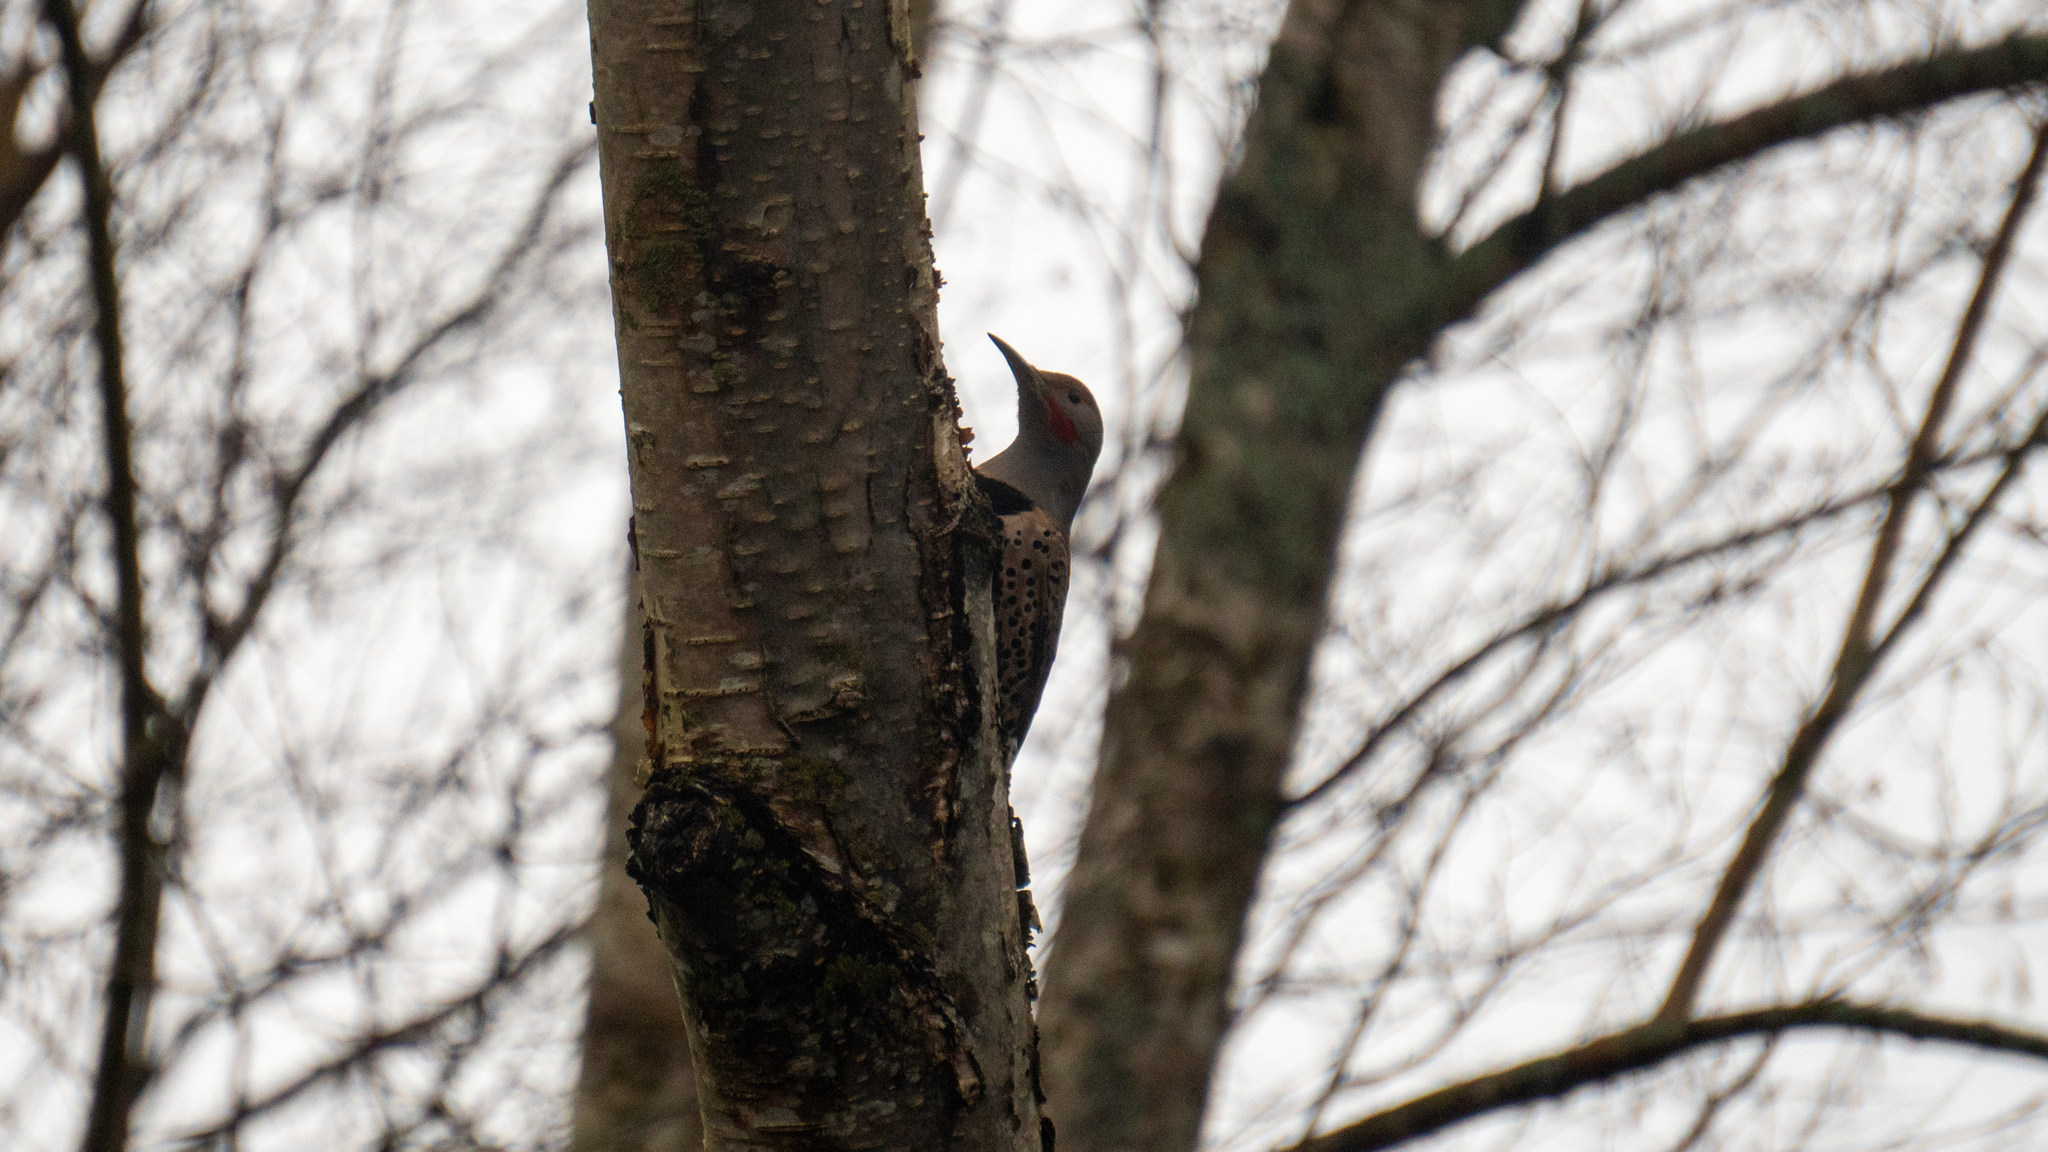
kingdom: Animalia
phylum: Chordata
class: Aves
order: Piciformes
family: Picidae
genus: Colaptes
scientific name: Colaptes auratus
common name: Northern flicker
